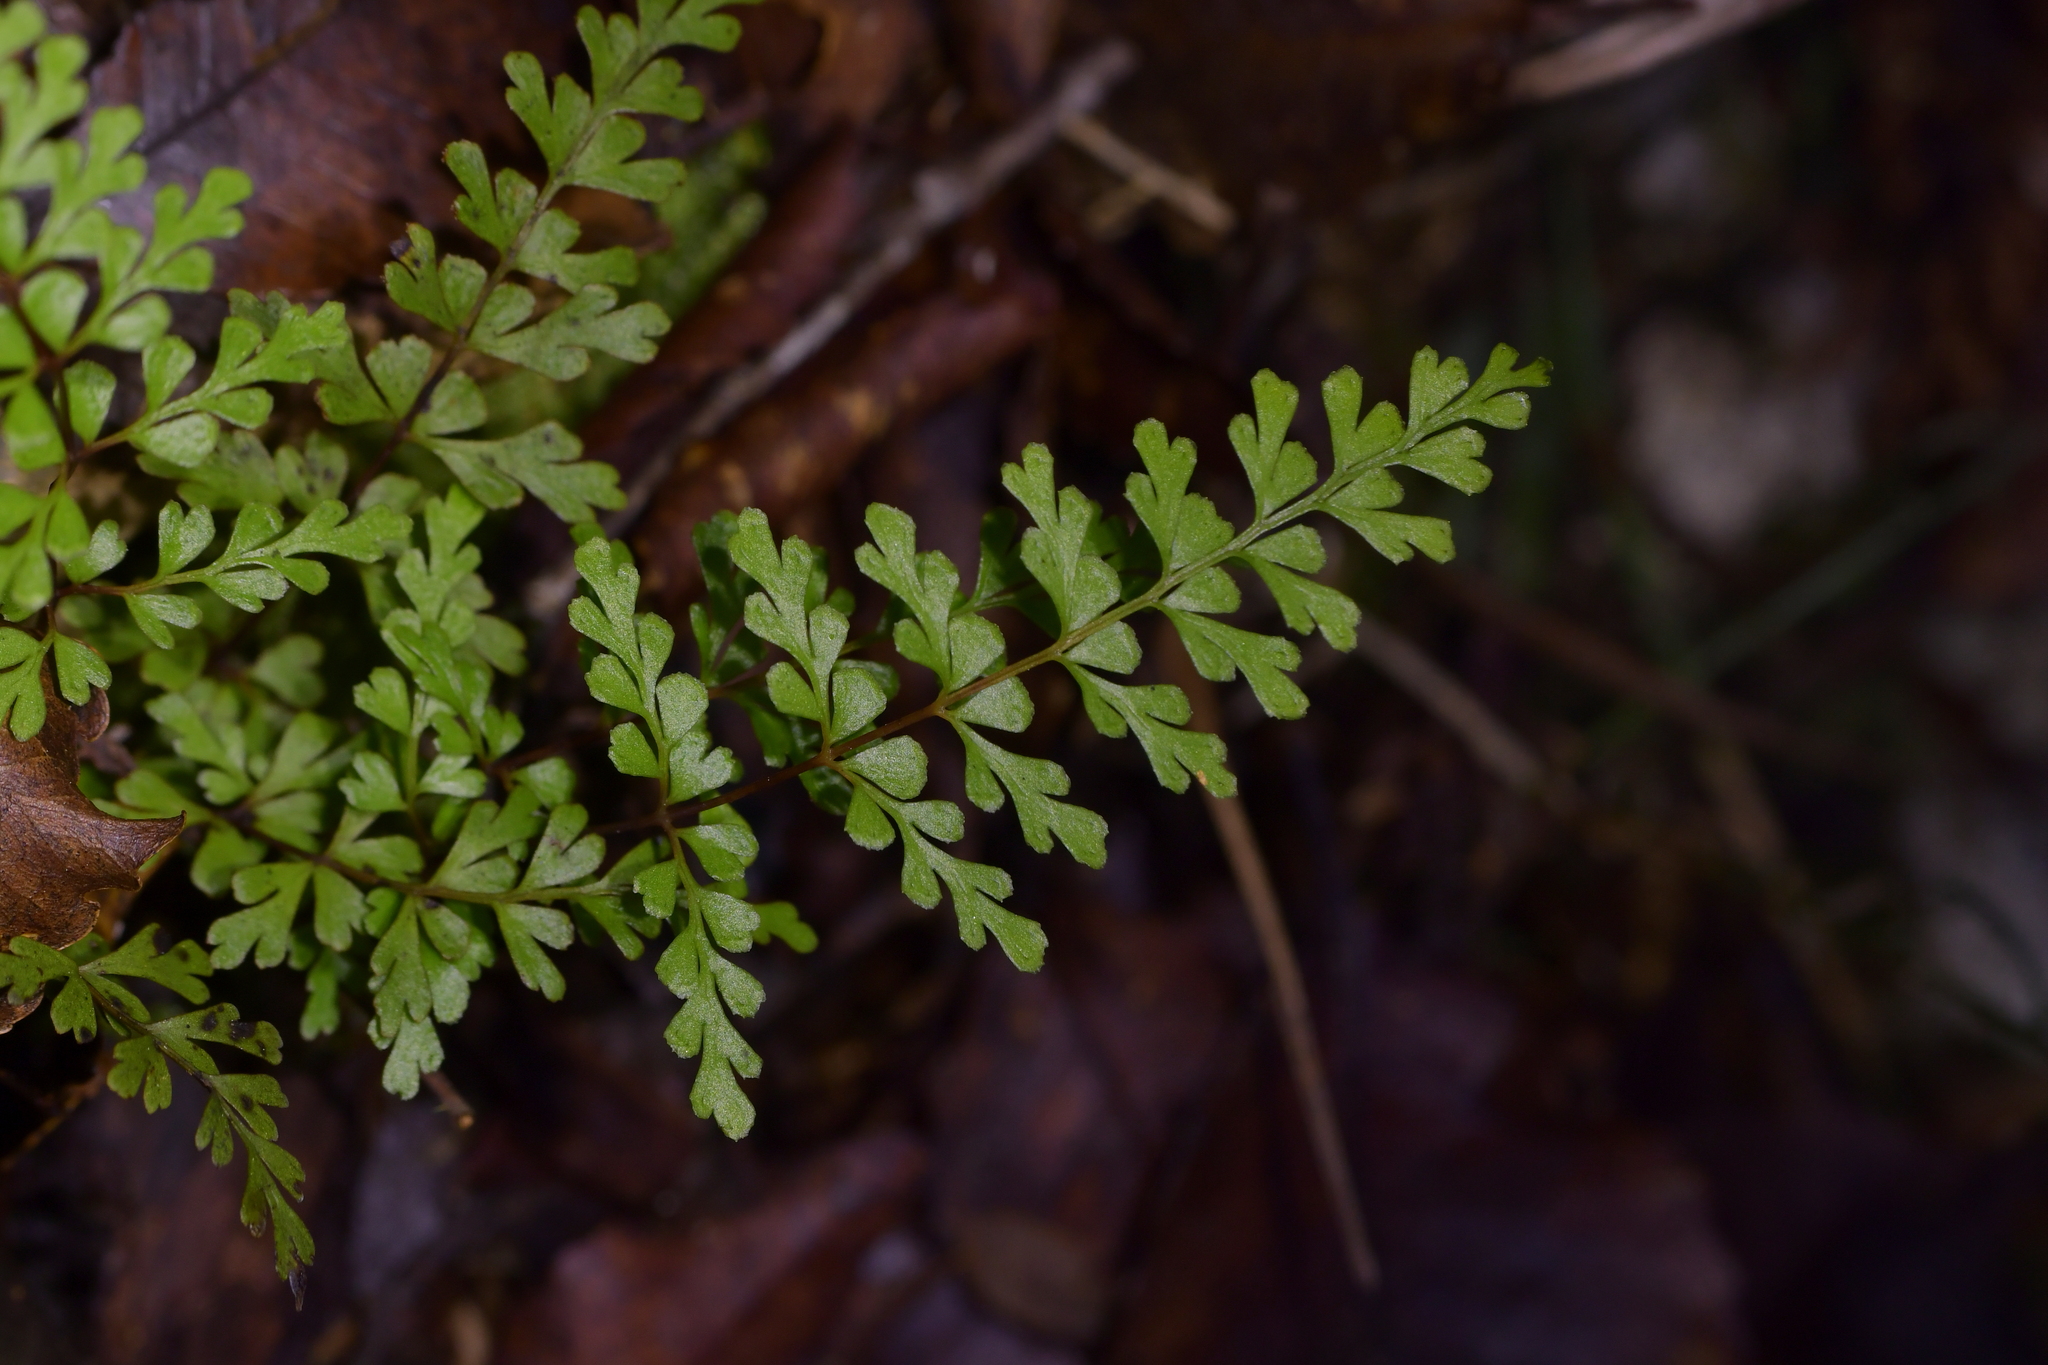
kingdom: Plantae
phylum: Tracheophyta
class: Polypodiopsida
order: Polypodiales
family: Lindsaeaceae
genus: Lindsaea
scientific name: Lindsaea trichomanoides
